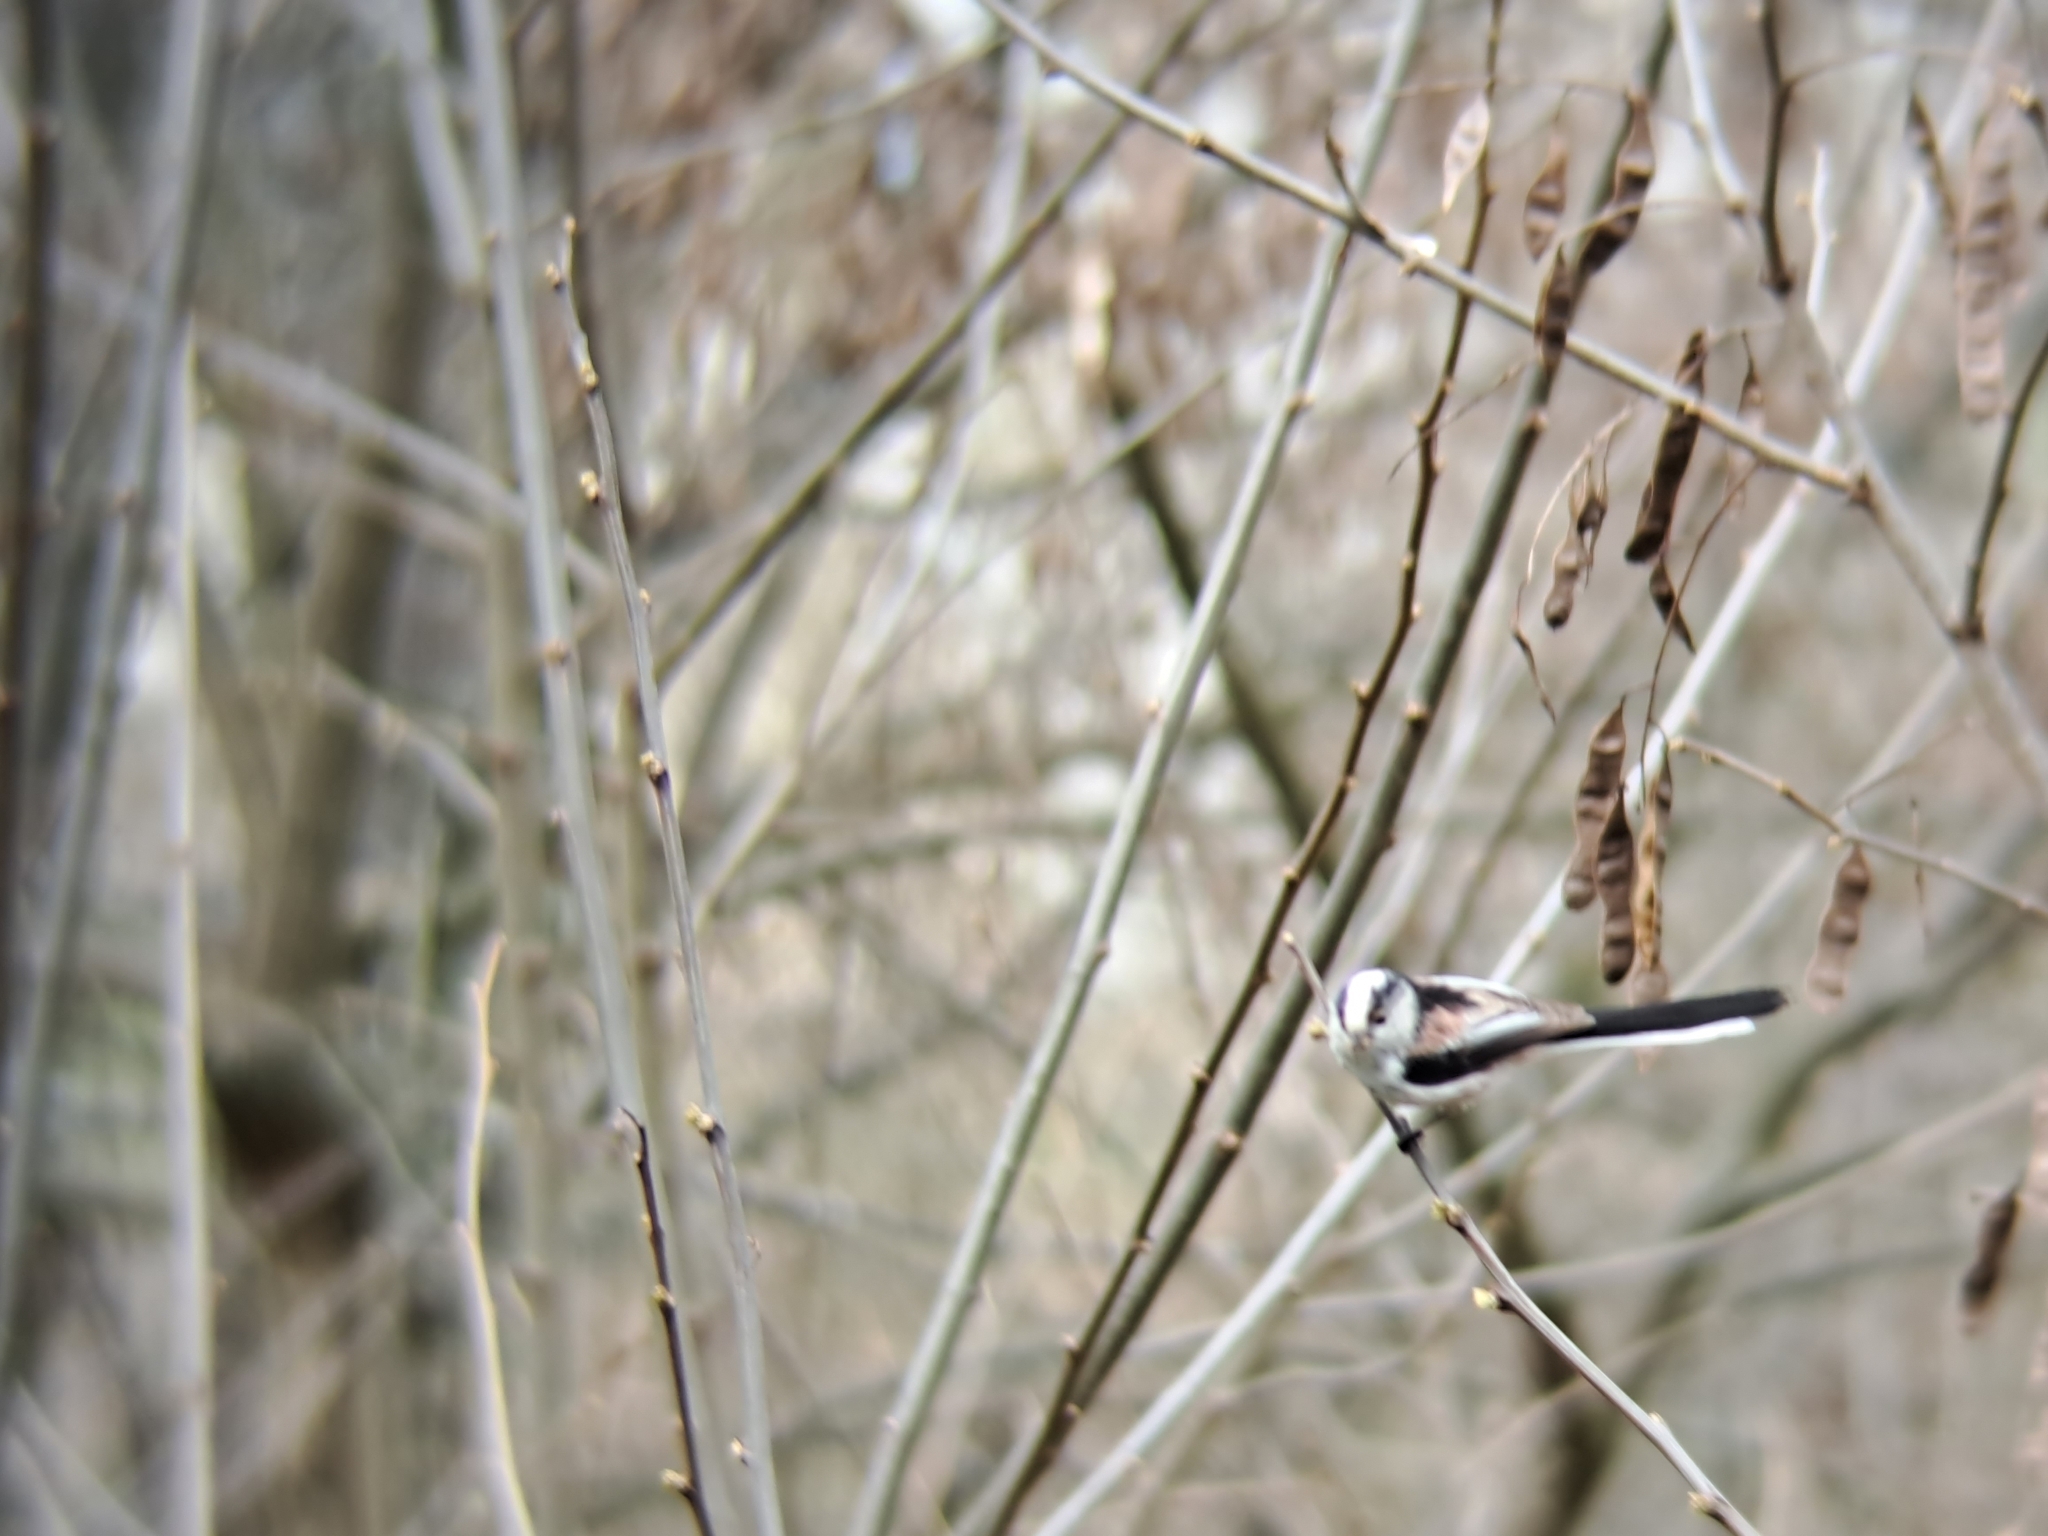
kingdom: Animalia
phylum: Chordata
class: Aves
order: Passeriformes
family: Aegithalidae
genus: Aegithalos
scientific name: Aegithalos caudatus
